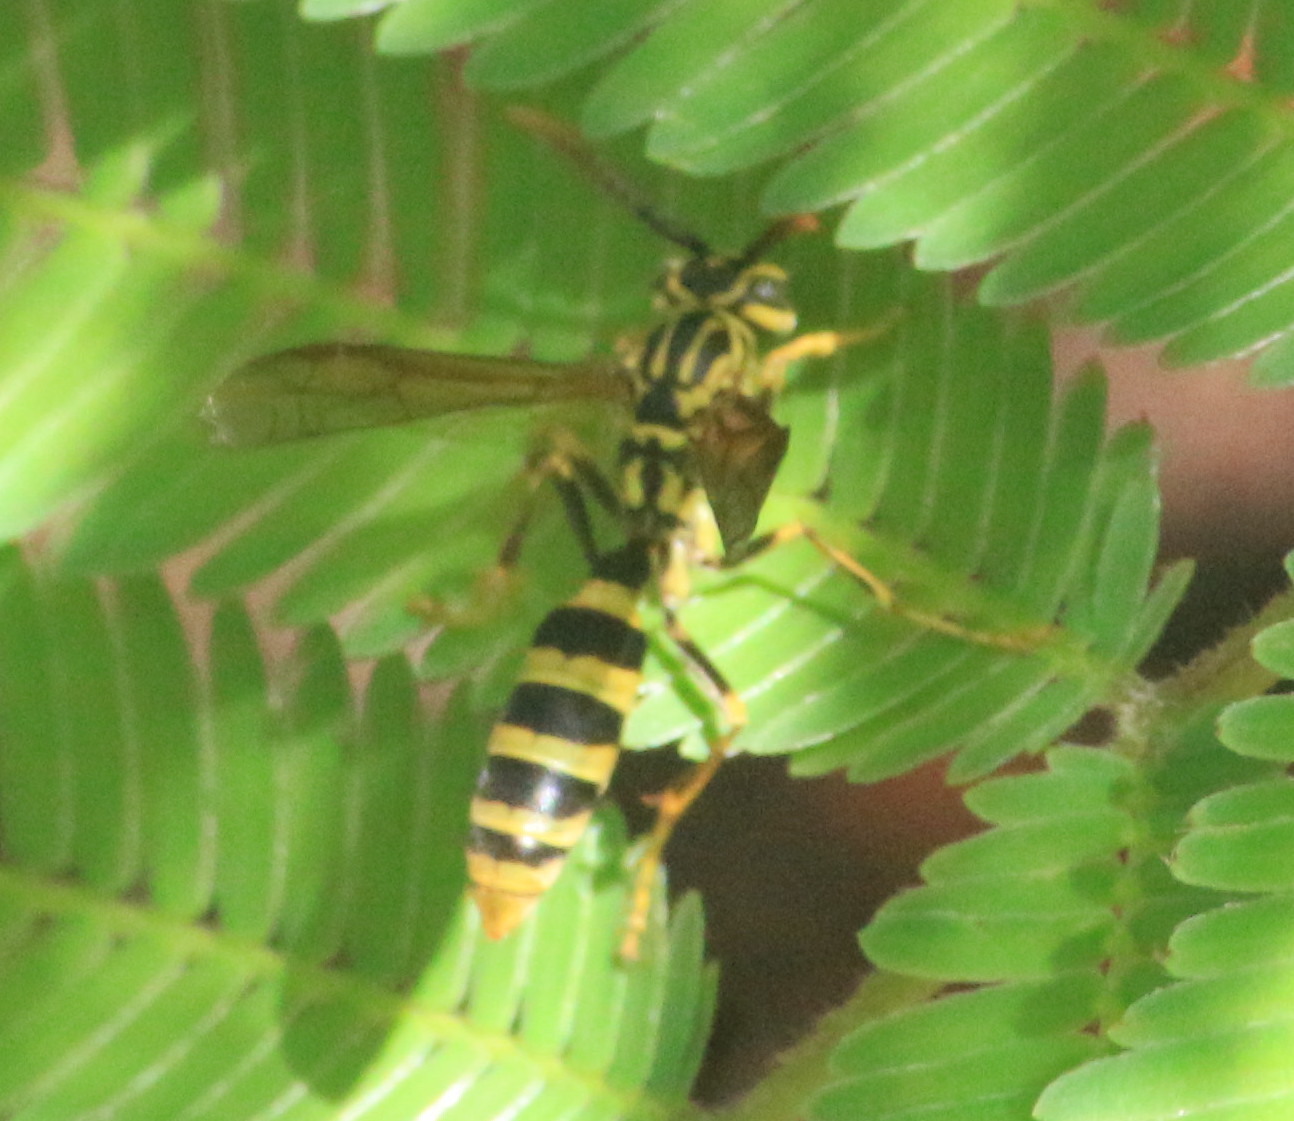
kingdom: Animalia
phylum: Arthropoda
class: Insecta
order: Hymenoptera
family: Vespidae
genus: Agelaia
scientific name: Agelaia areata
